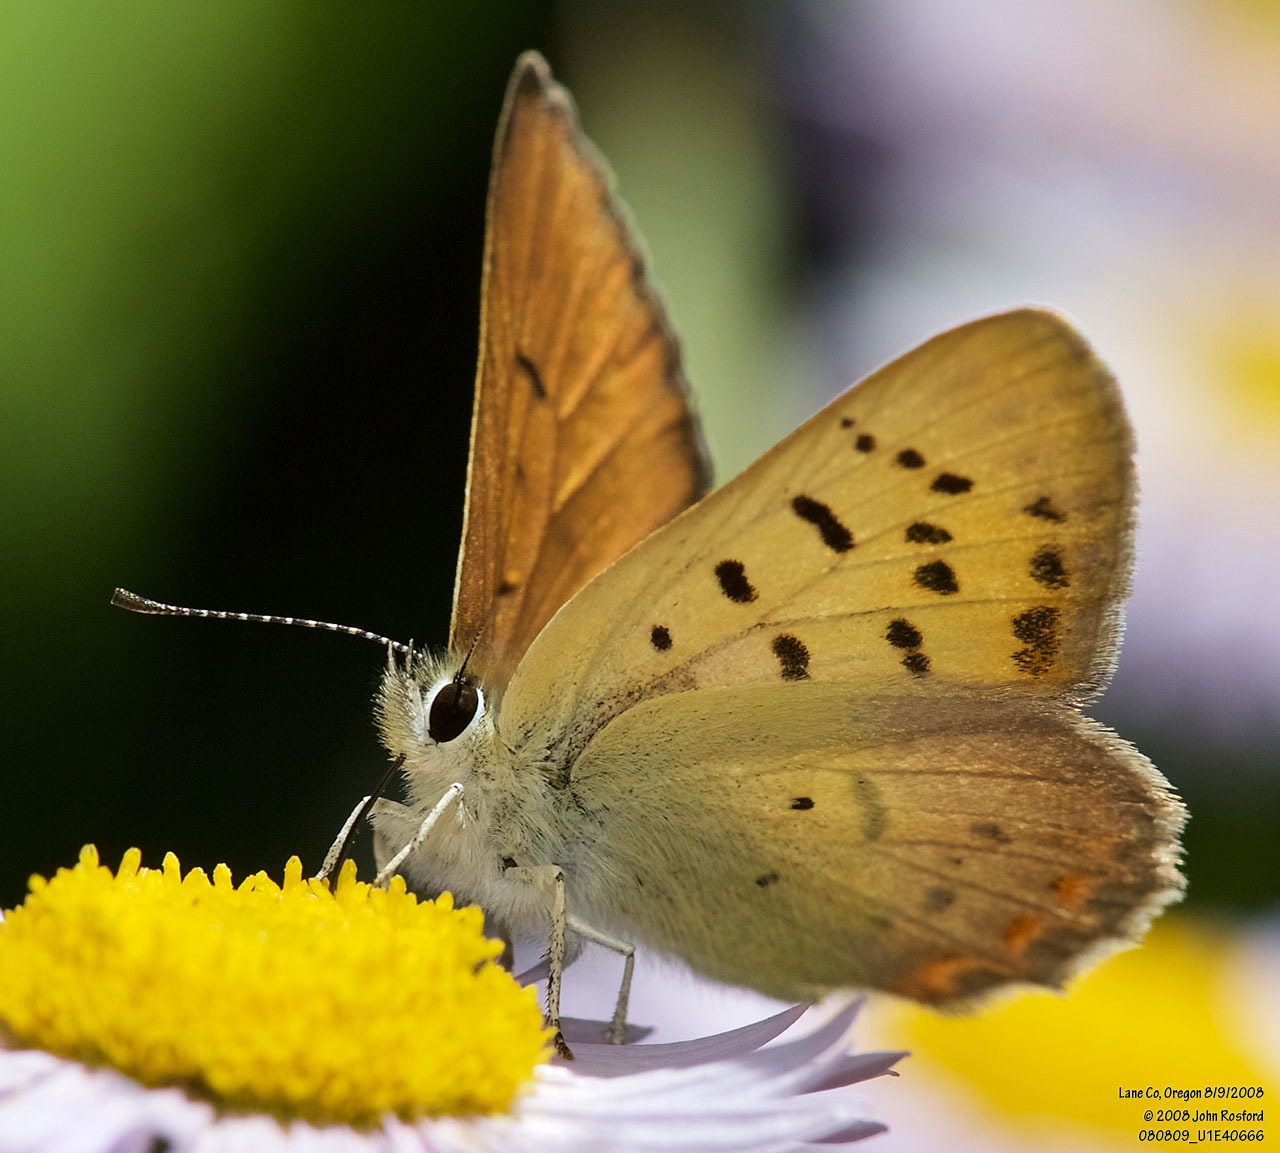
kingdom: Animalia
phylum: Arthropoda
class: Insecta
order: Lepidoptera
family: Lycaenidae
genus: Tharsalea
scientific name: Tharsalea nivalis
